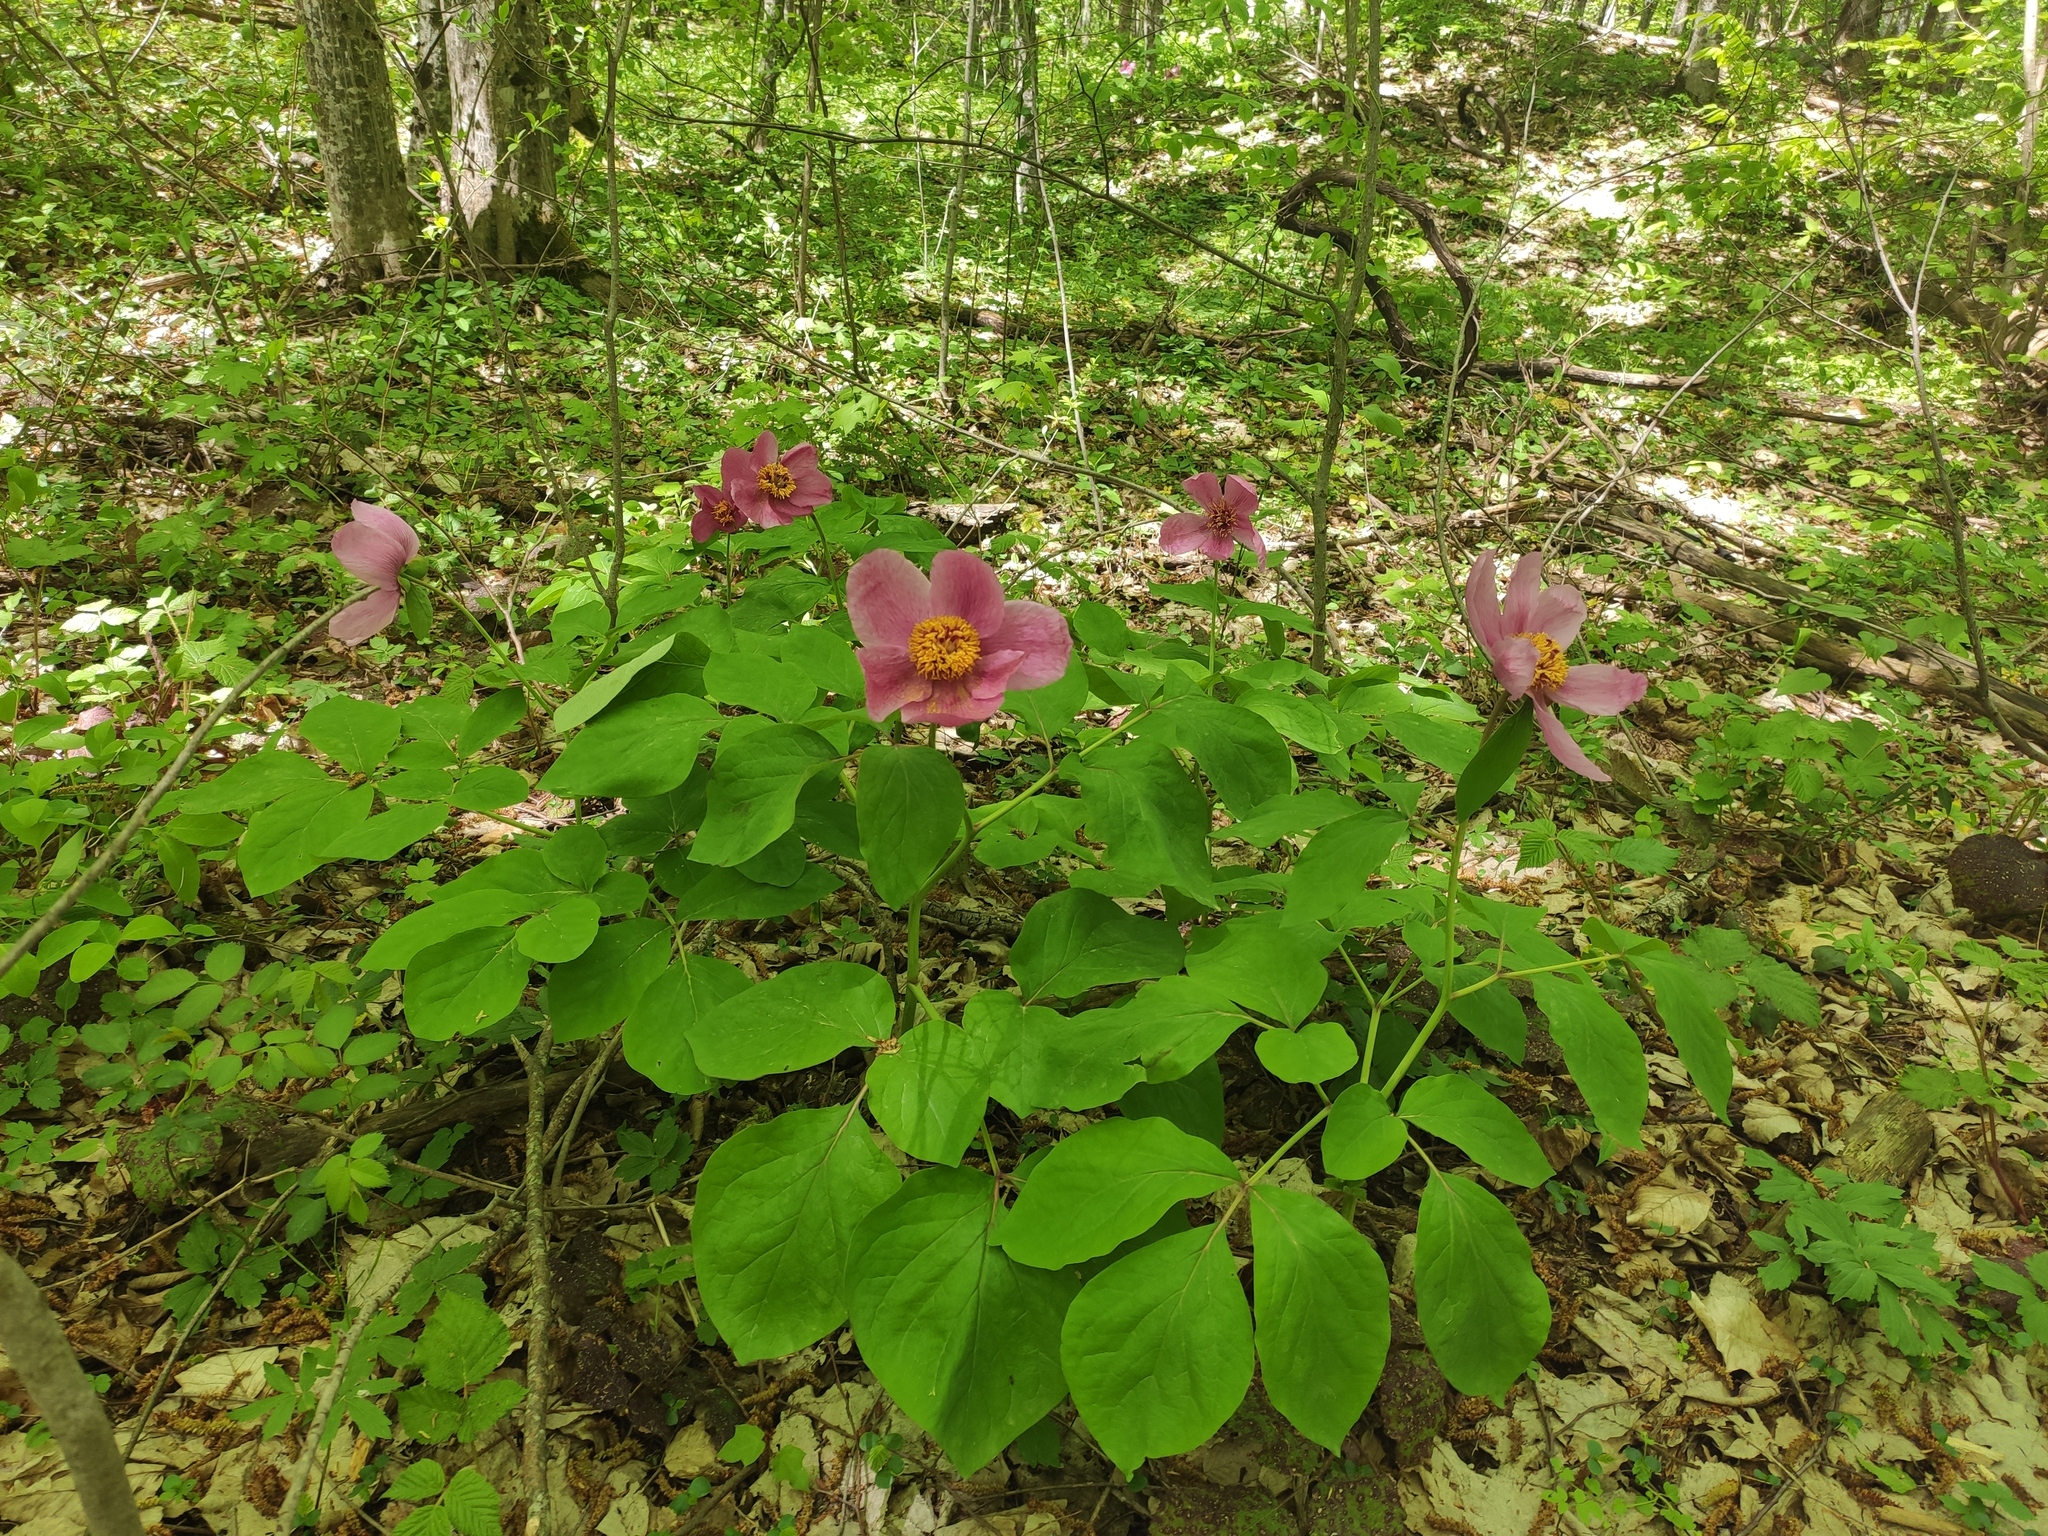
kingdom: Plantae
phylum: Tracheophyta
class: Magnoliopsida
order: Saxifragales
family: Paeoniaceae
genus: Paeonia
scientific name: Paeonia caucasica
